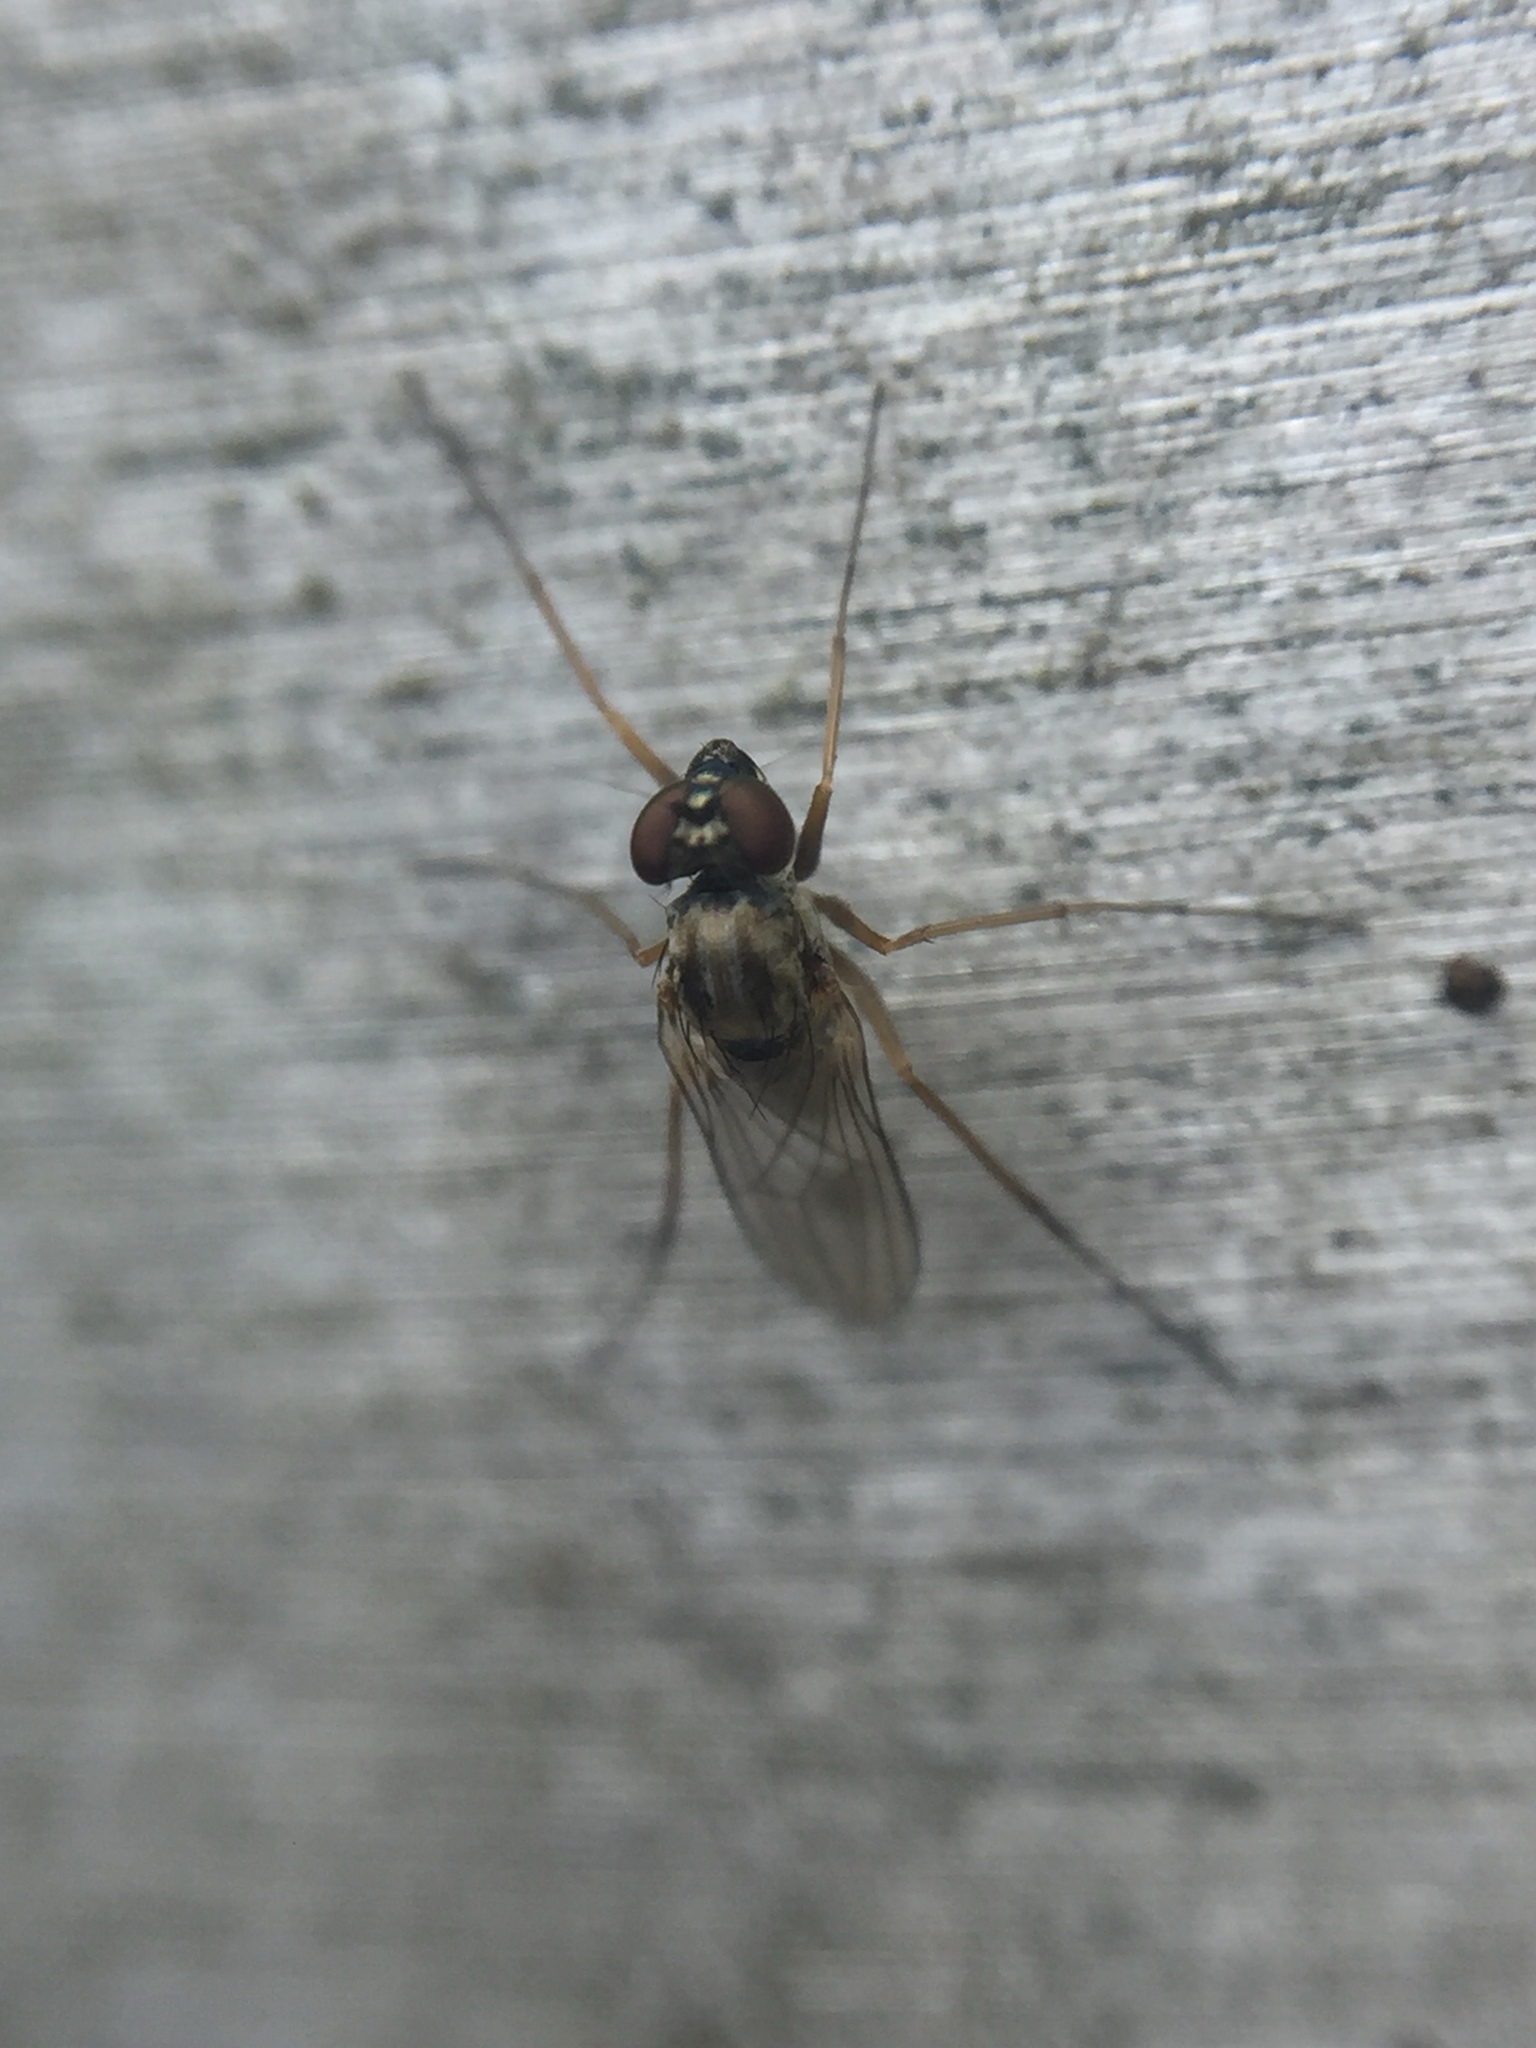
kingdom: Animalia
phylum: Arthropoda
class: Insecta
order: Diptera
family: Dolichopodidae
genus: Medetera
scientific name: Medetera diadema
